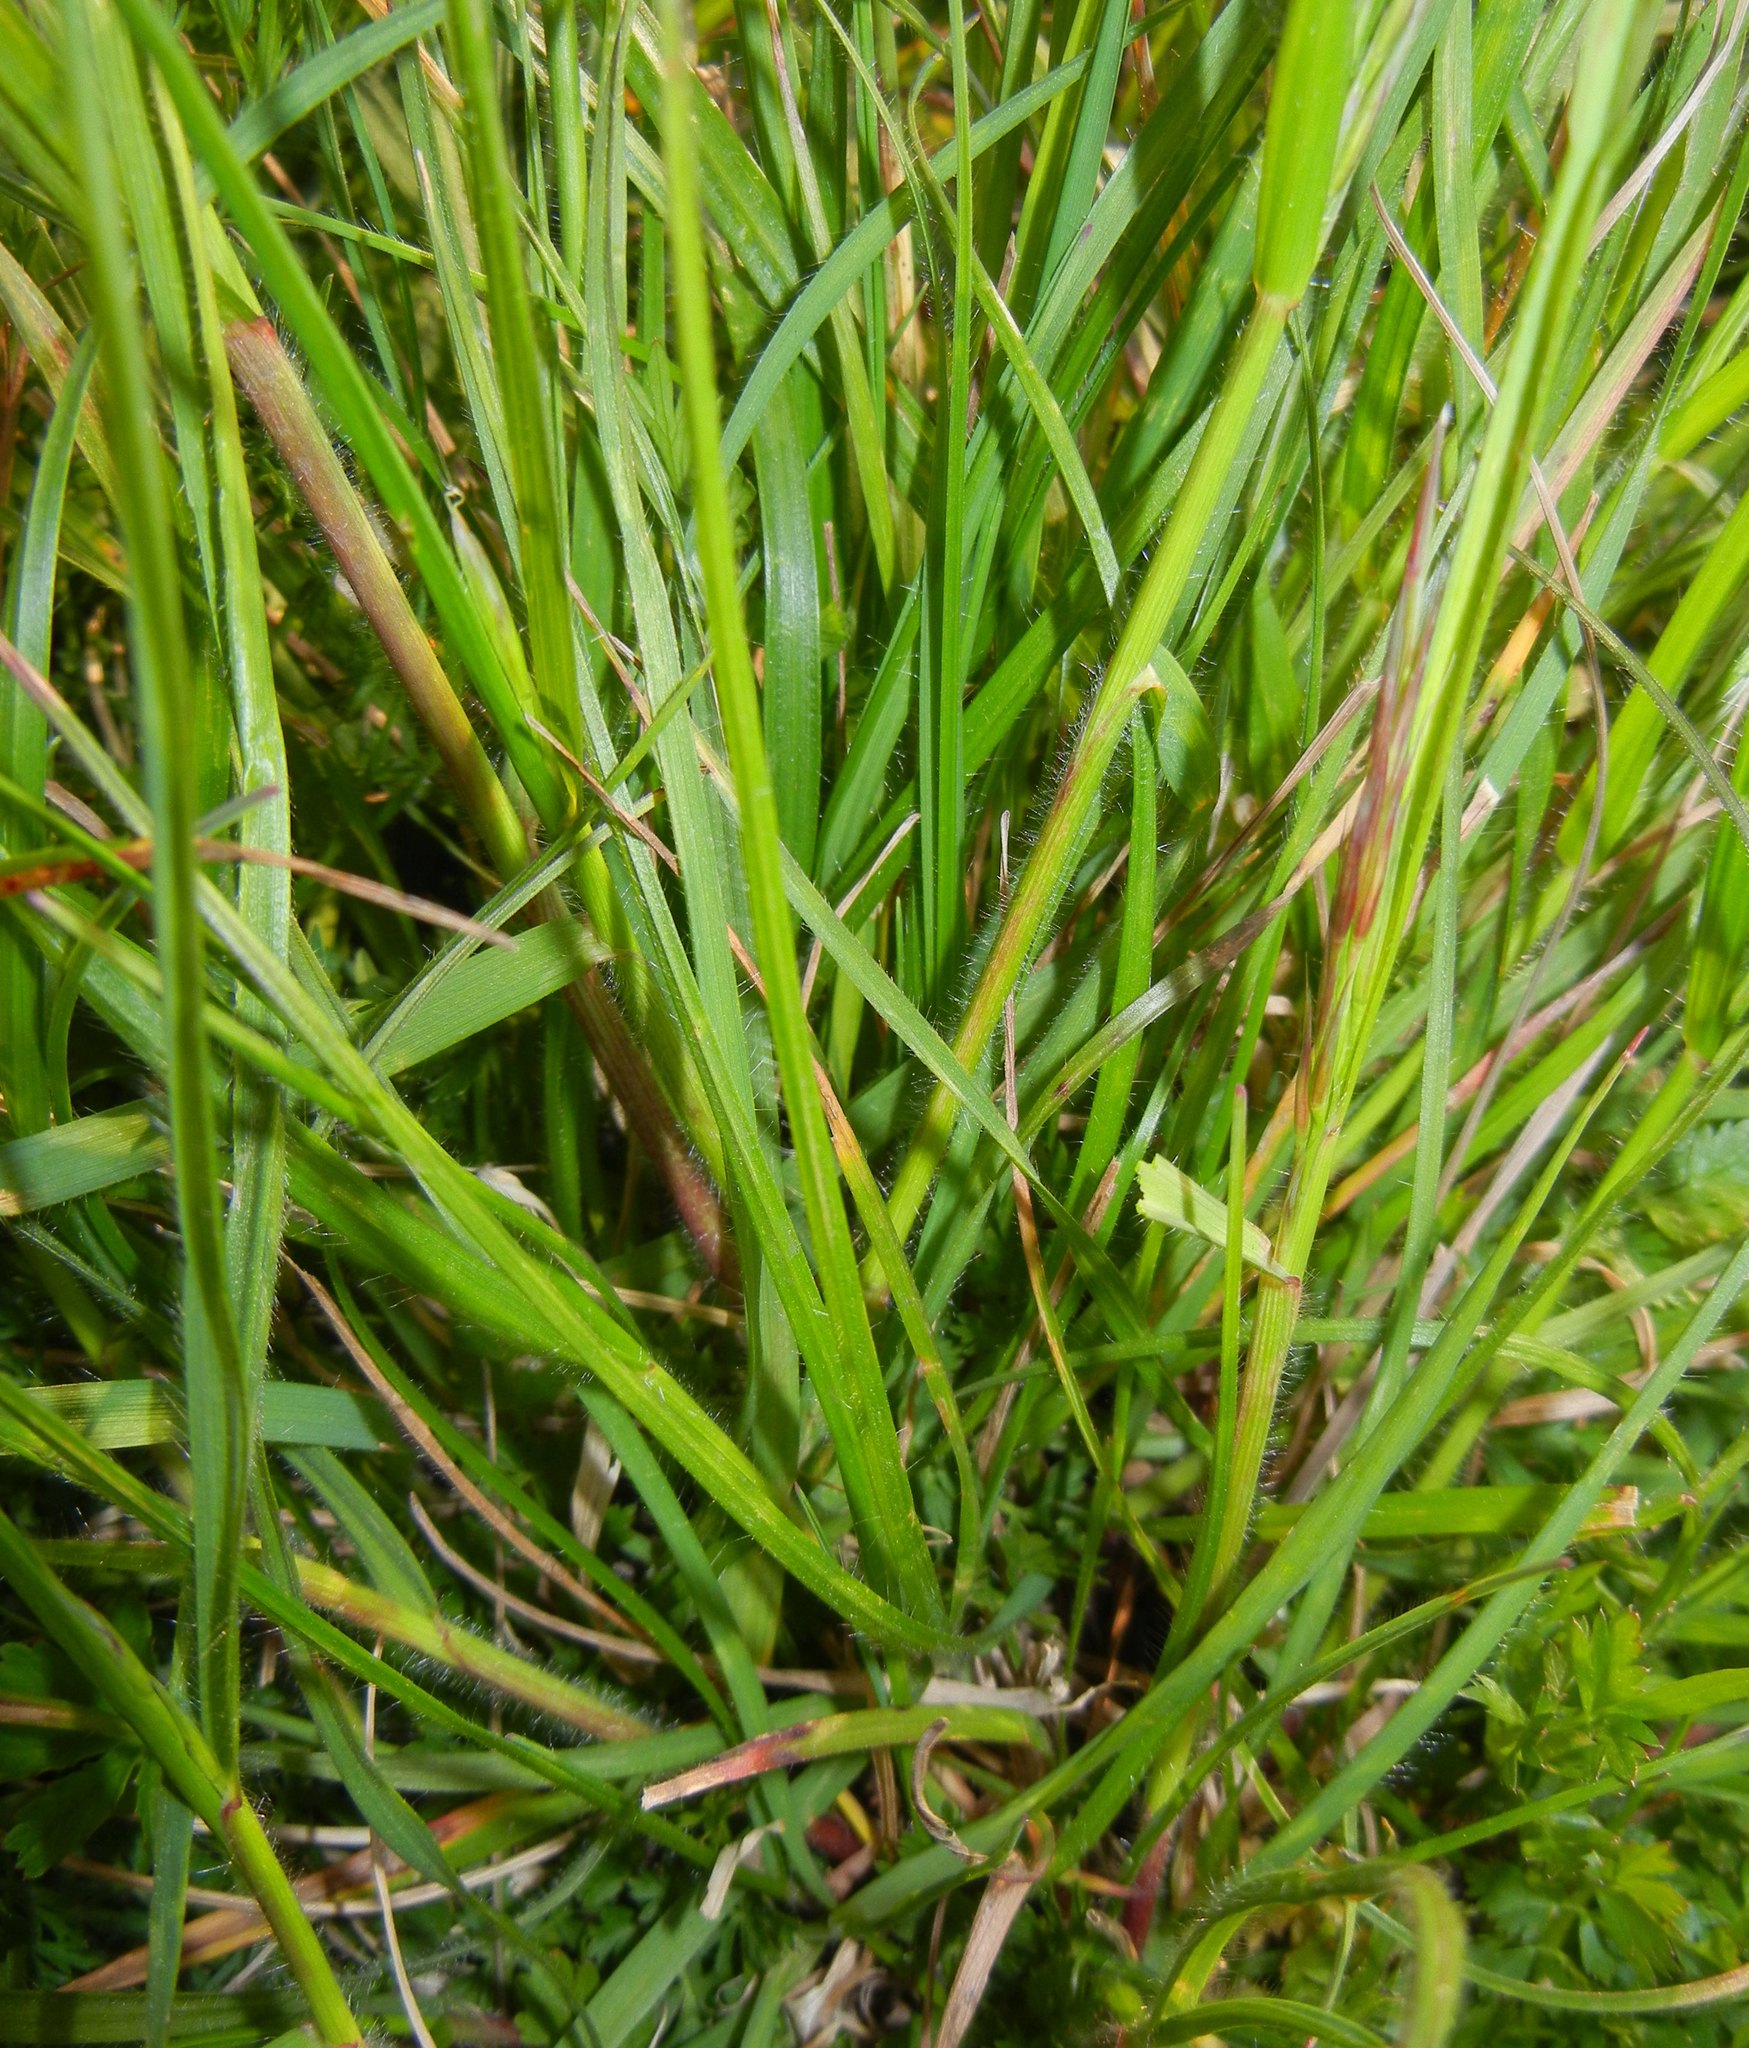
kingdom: Plantae
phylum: Tracheophyta
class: Liliopsida
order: Poales
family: Poaceae
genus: Bromus
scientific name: Bromus erectus
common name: Erect brome
